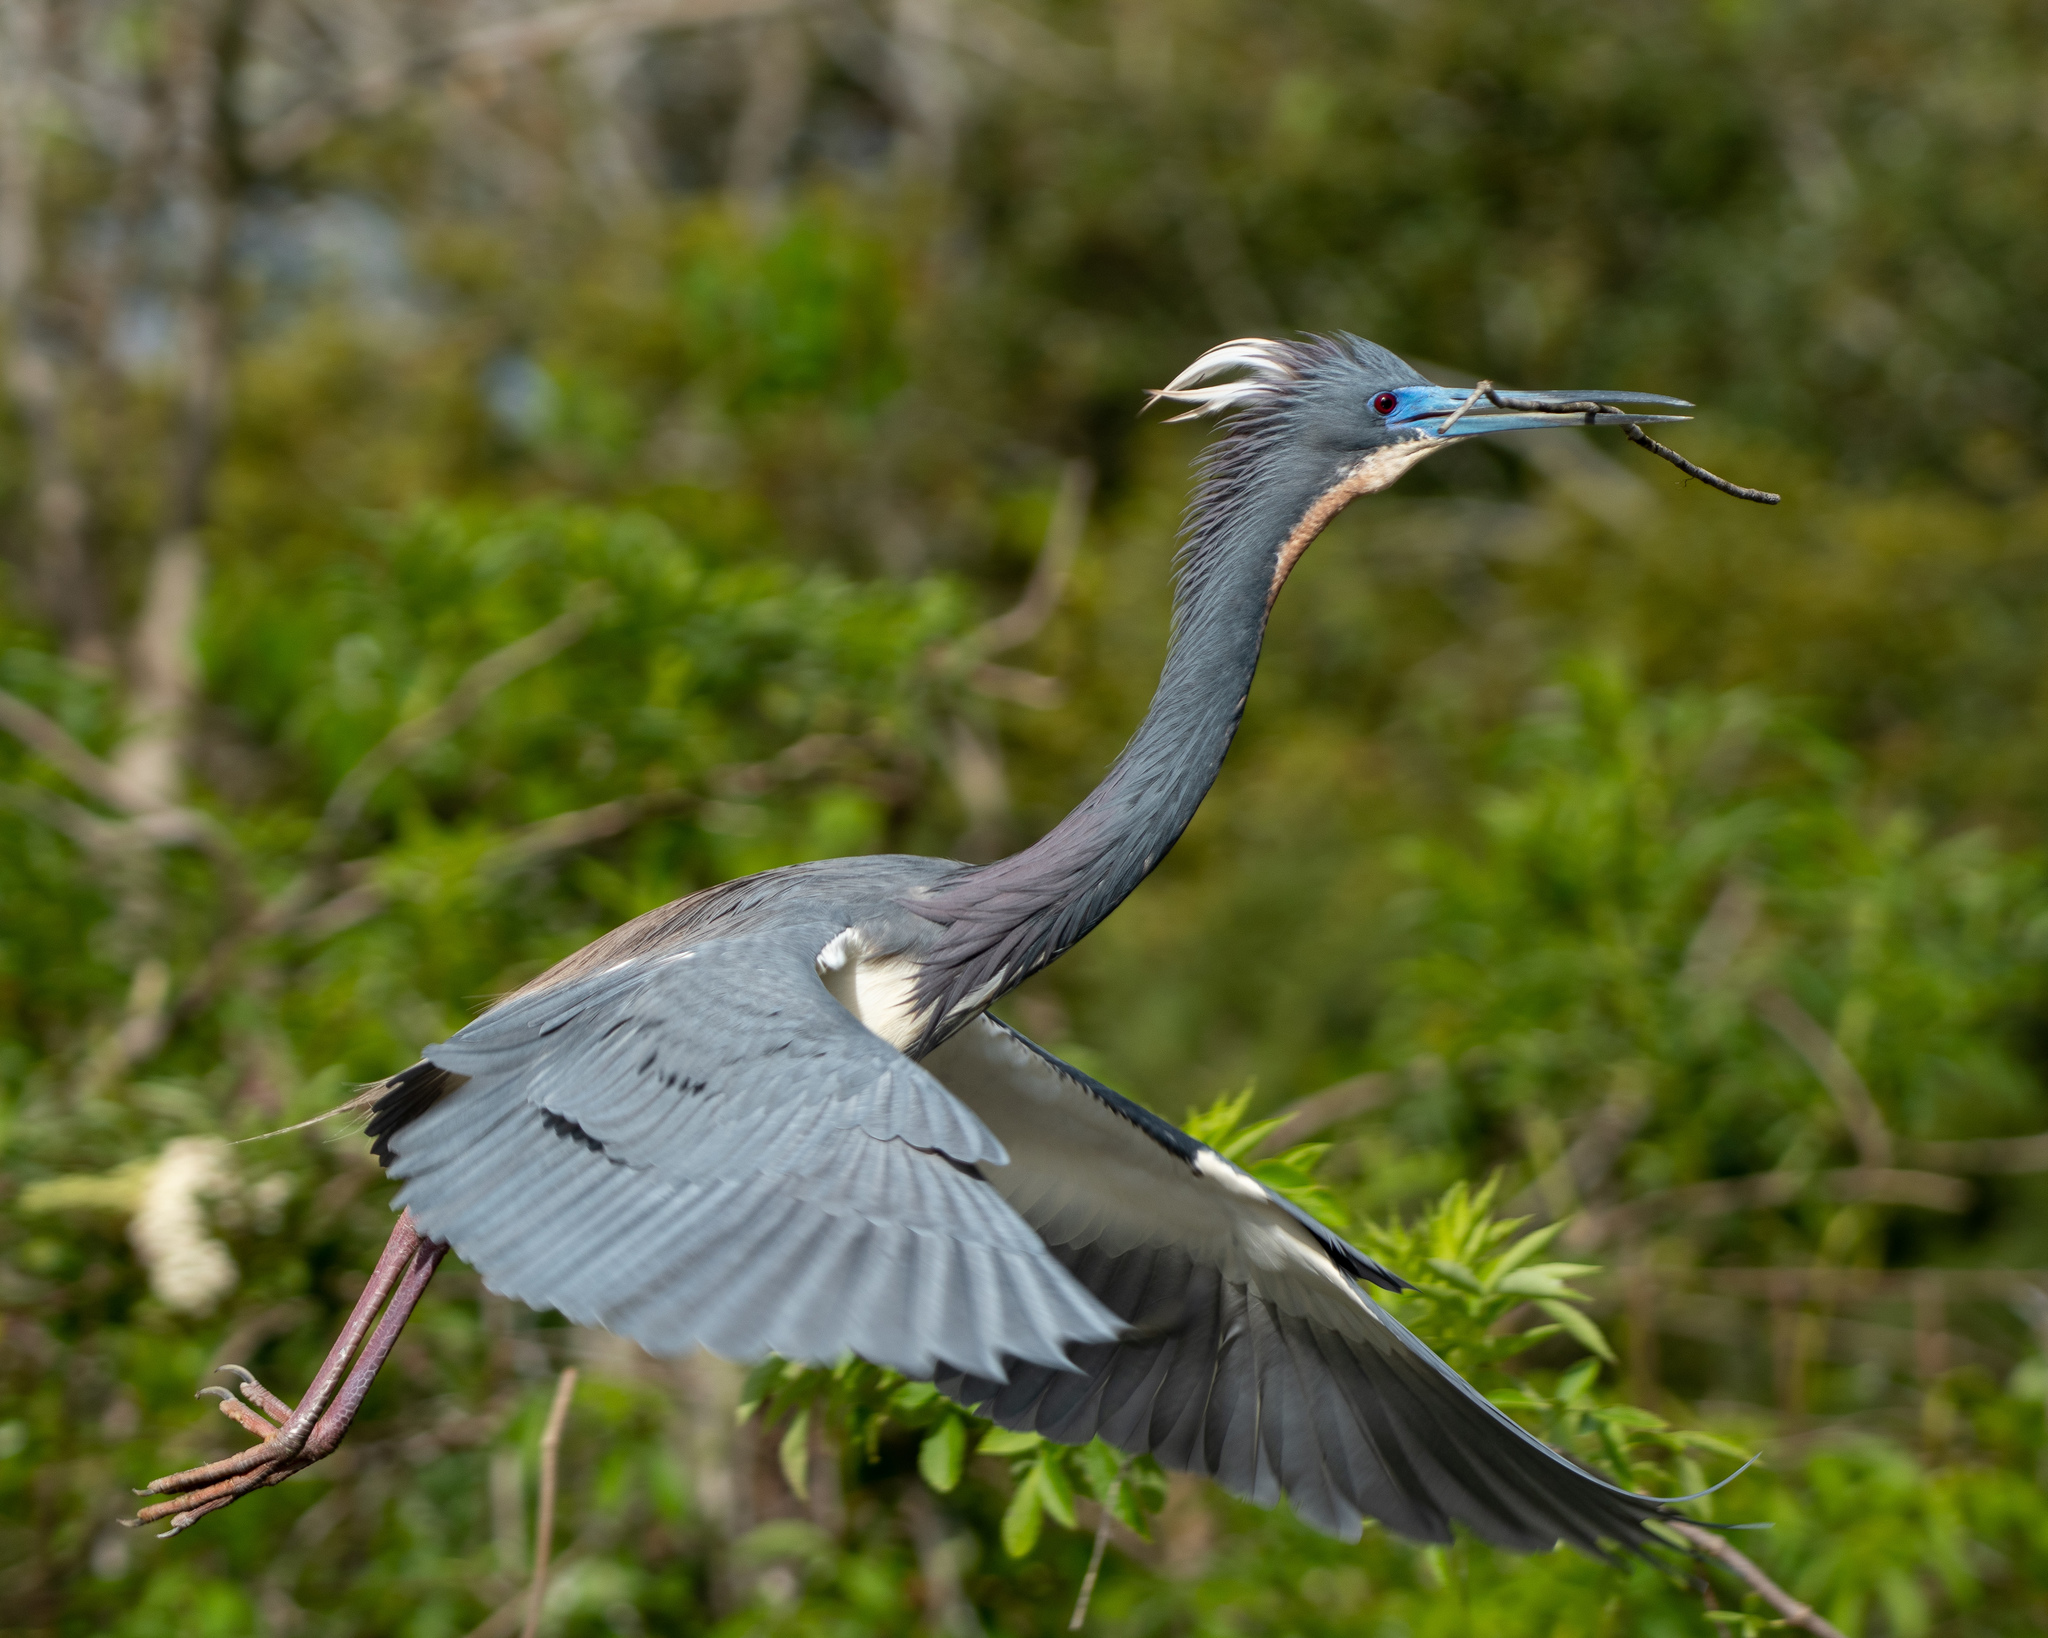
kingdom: Animalia
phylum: Chordata
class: Aves
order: Pelecaniformes
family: Ardeidae
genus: Egretta
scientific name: Egretta tricolor
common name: Tricolored heron
